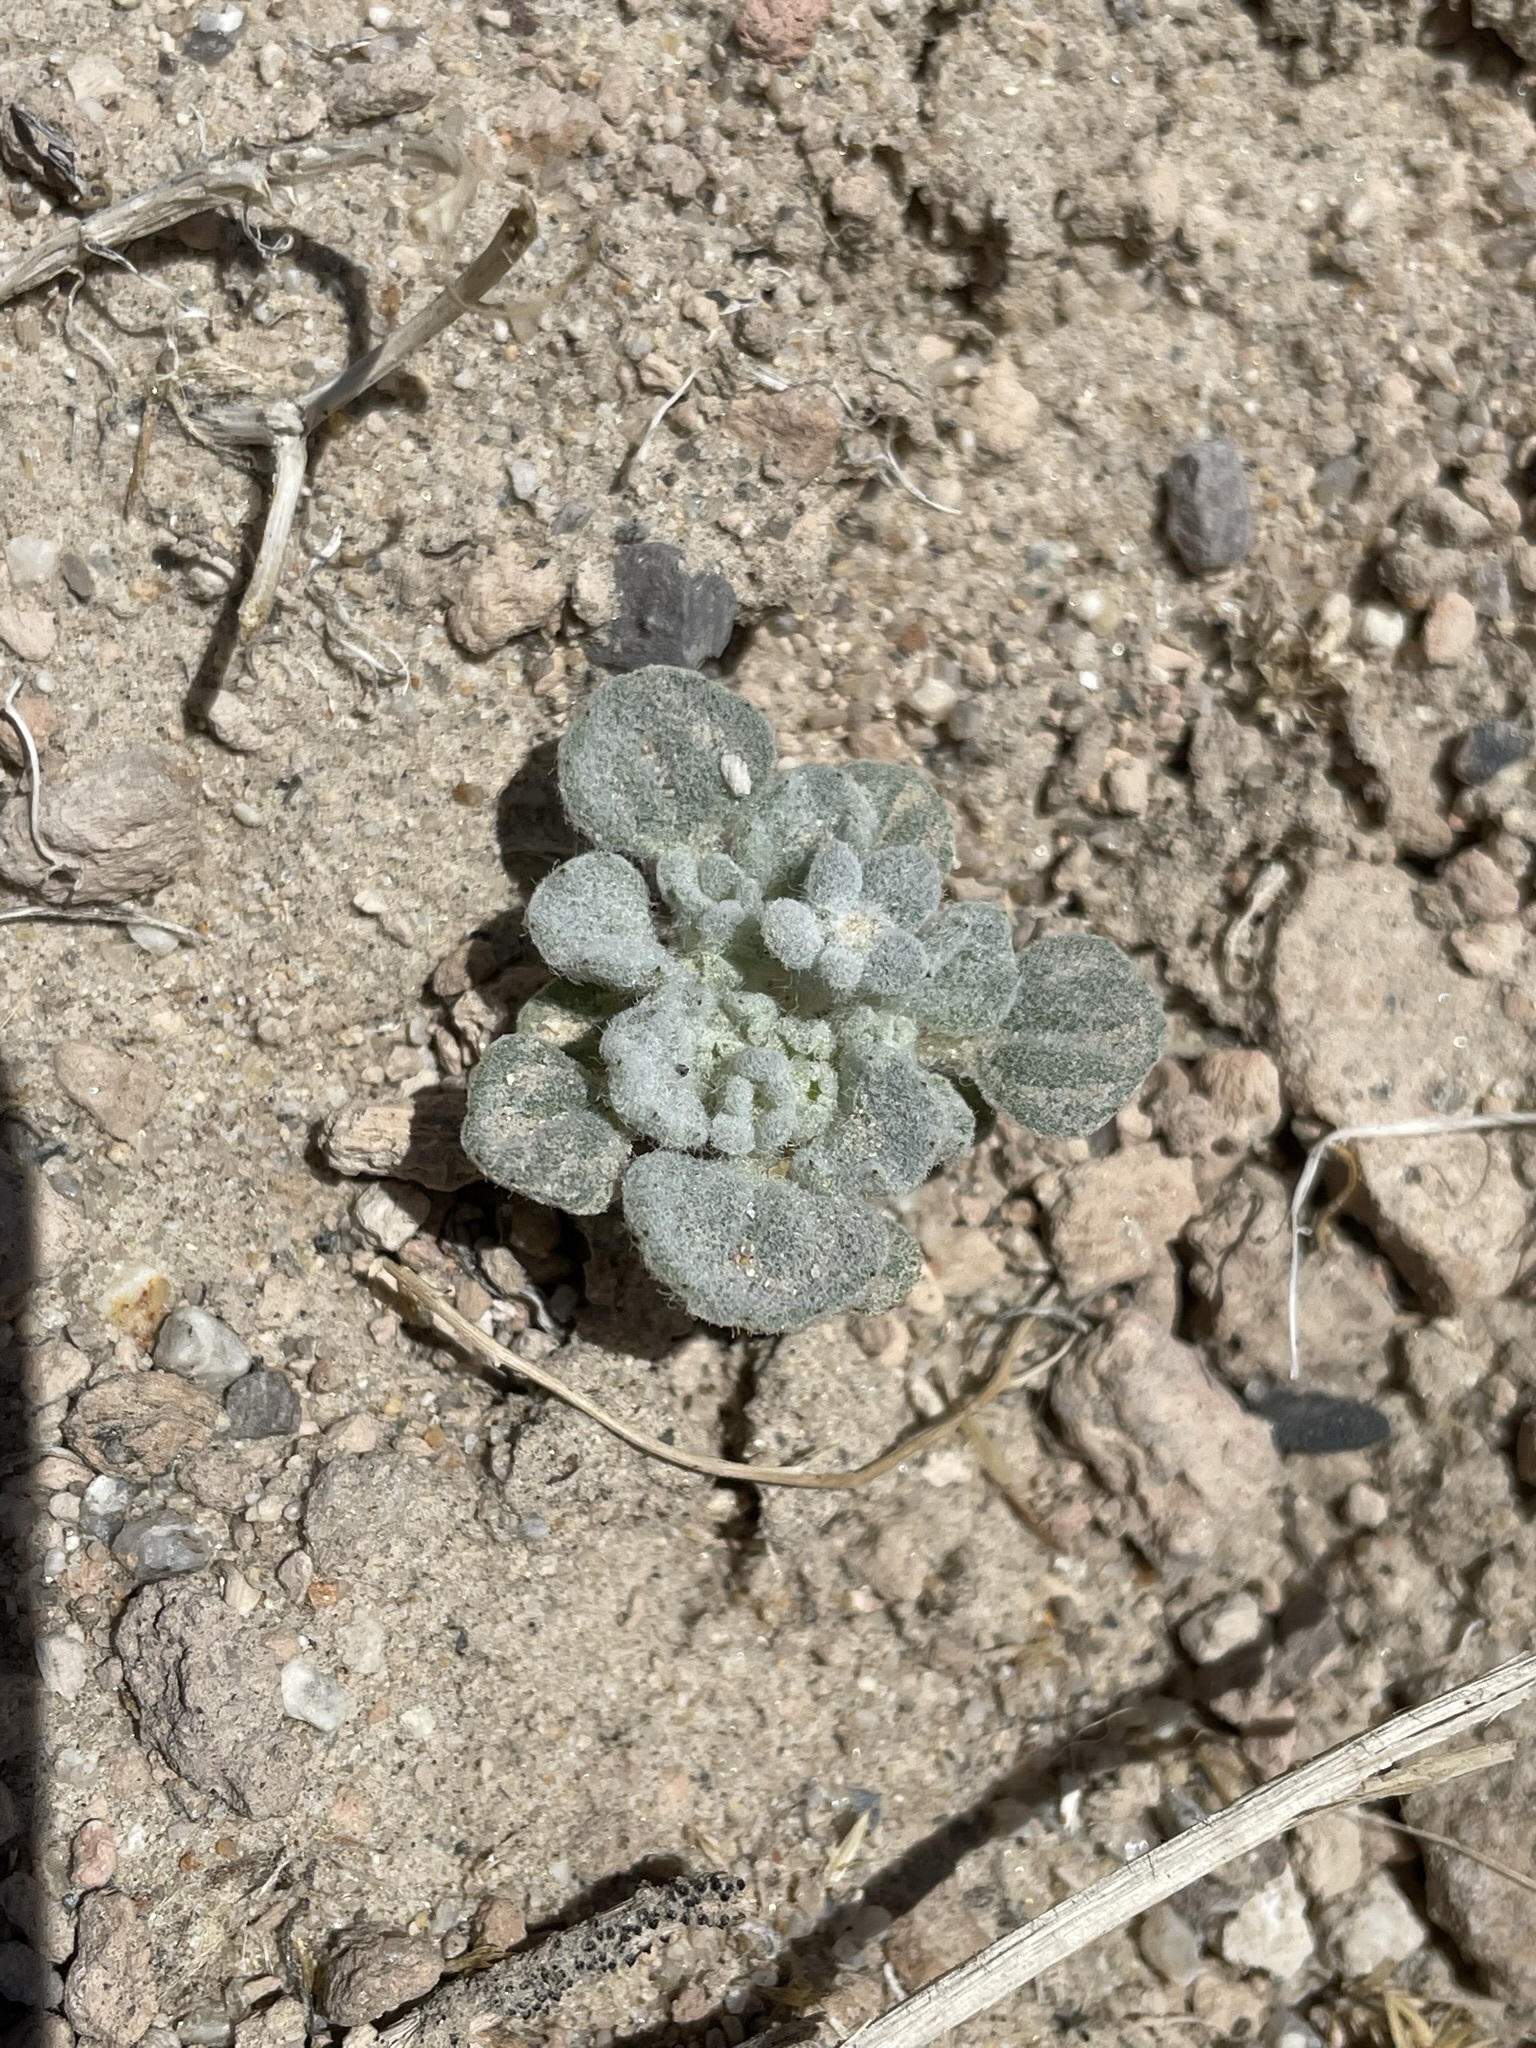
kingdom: Plantae
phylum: Tracheophyta
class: Magnoliopsida
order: Asterales
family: Asteraceae
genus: Psathyrotes
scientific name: Psathyrotes annua
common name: Mealy rosettes
